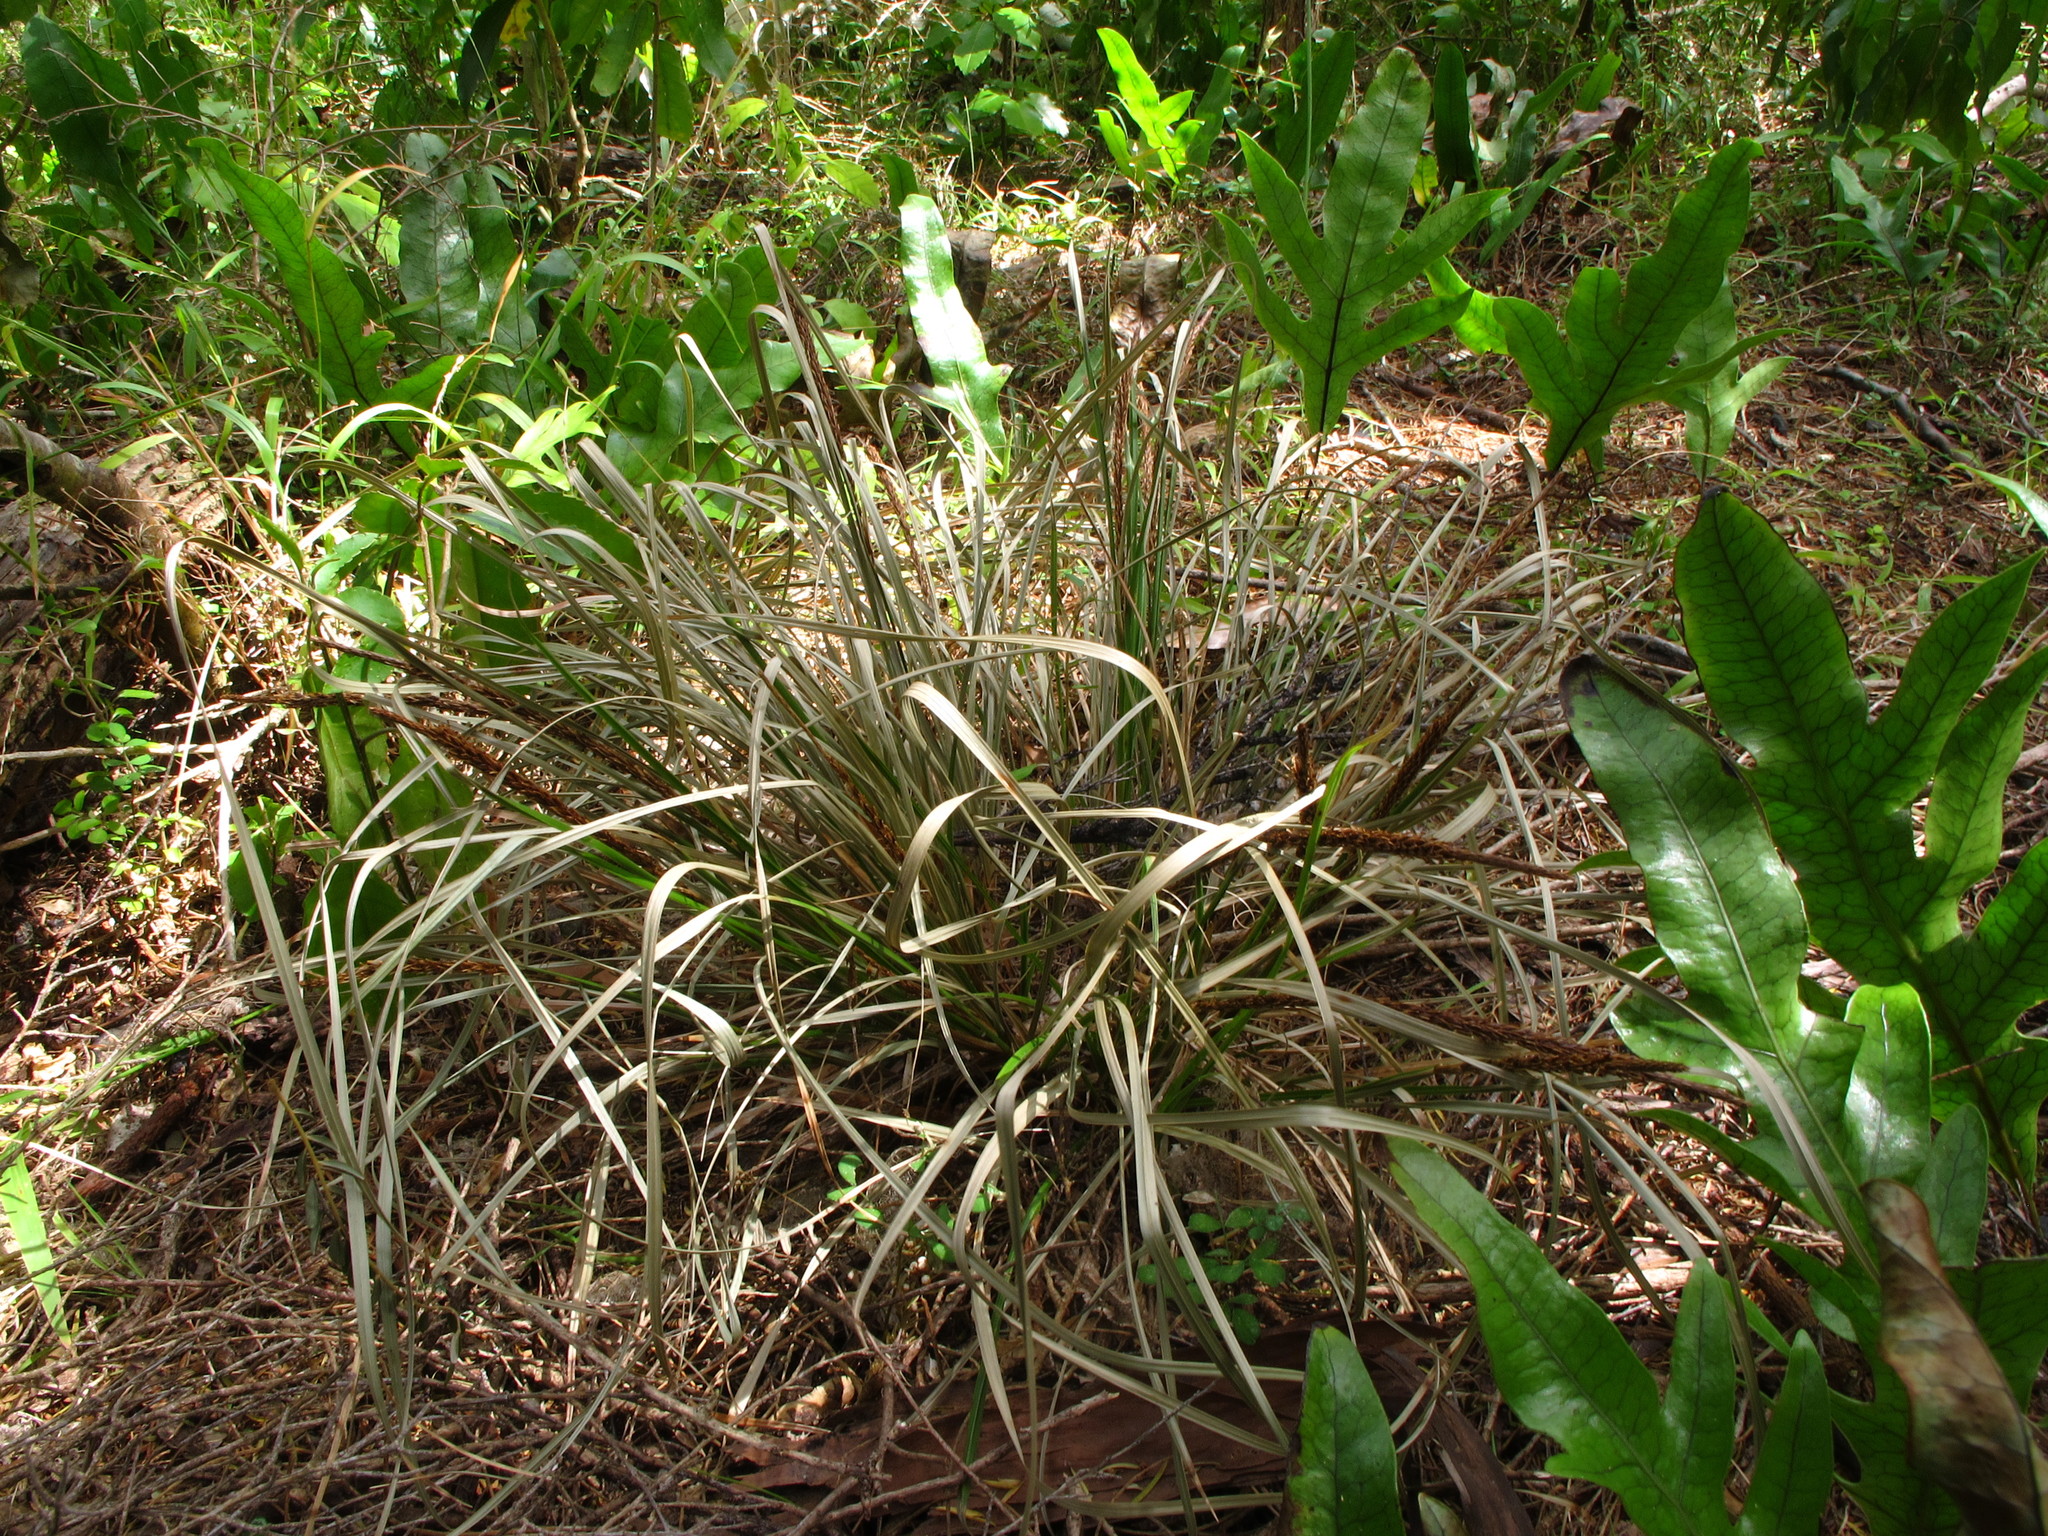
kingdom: Plantae
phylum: Tracheophyta
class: Liliopsida
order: Poales
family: Cyperaceae
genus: Carex
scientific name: Carex uncinata
